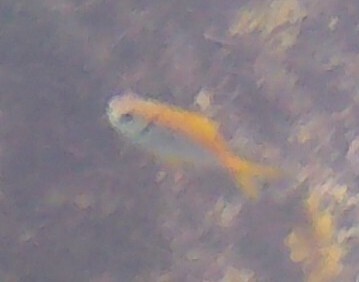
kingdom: Animalia
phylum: Chordata
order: Perciformes
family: Monodactylidae
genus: Schuettea
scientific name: Schuettea scalaripinnis
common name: Eastern pomfred
